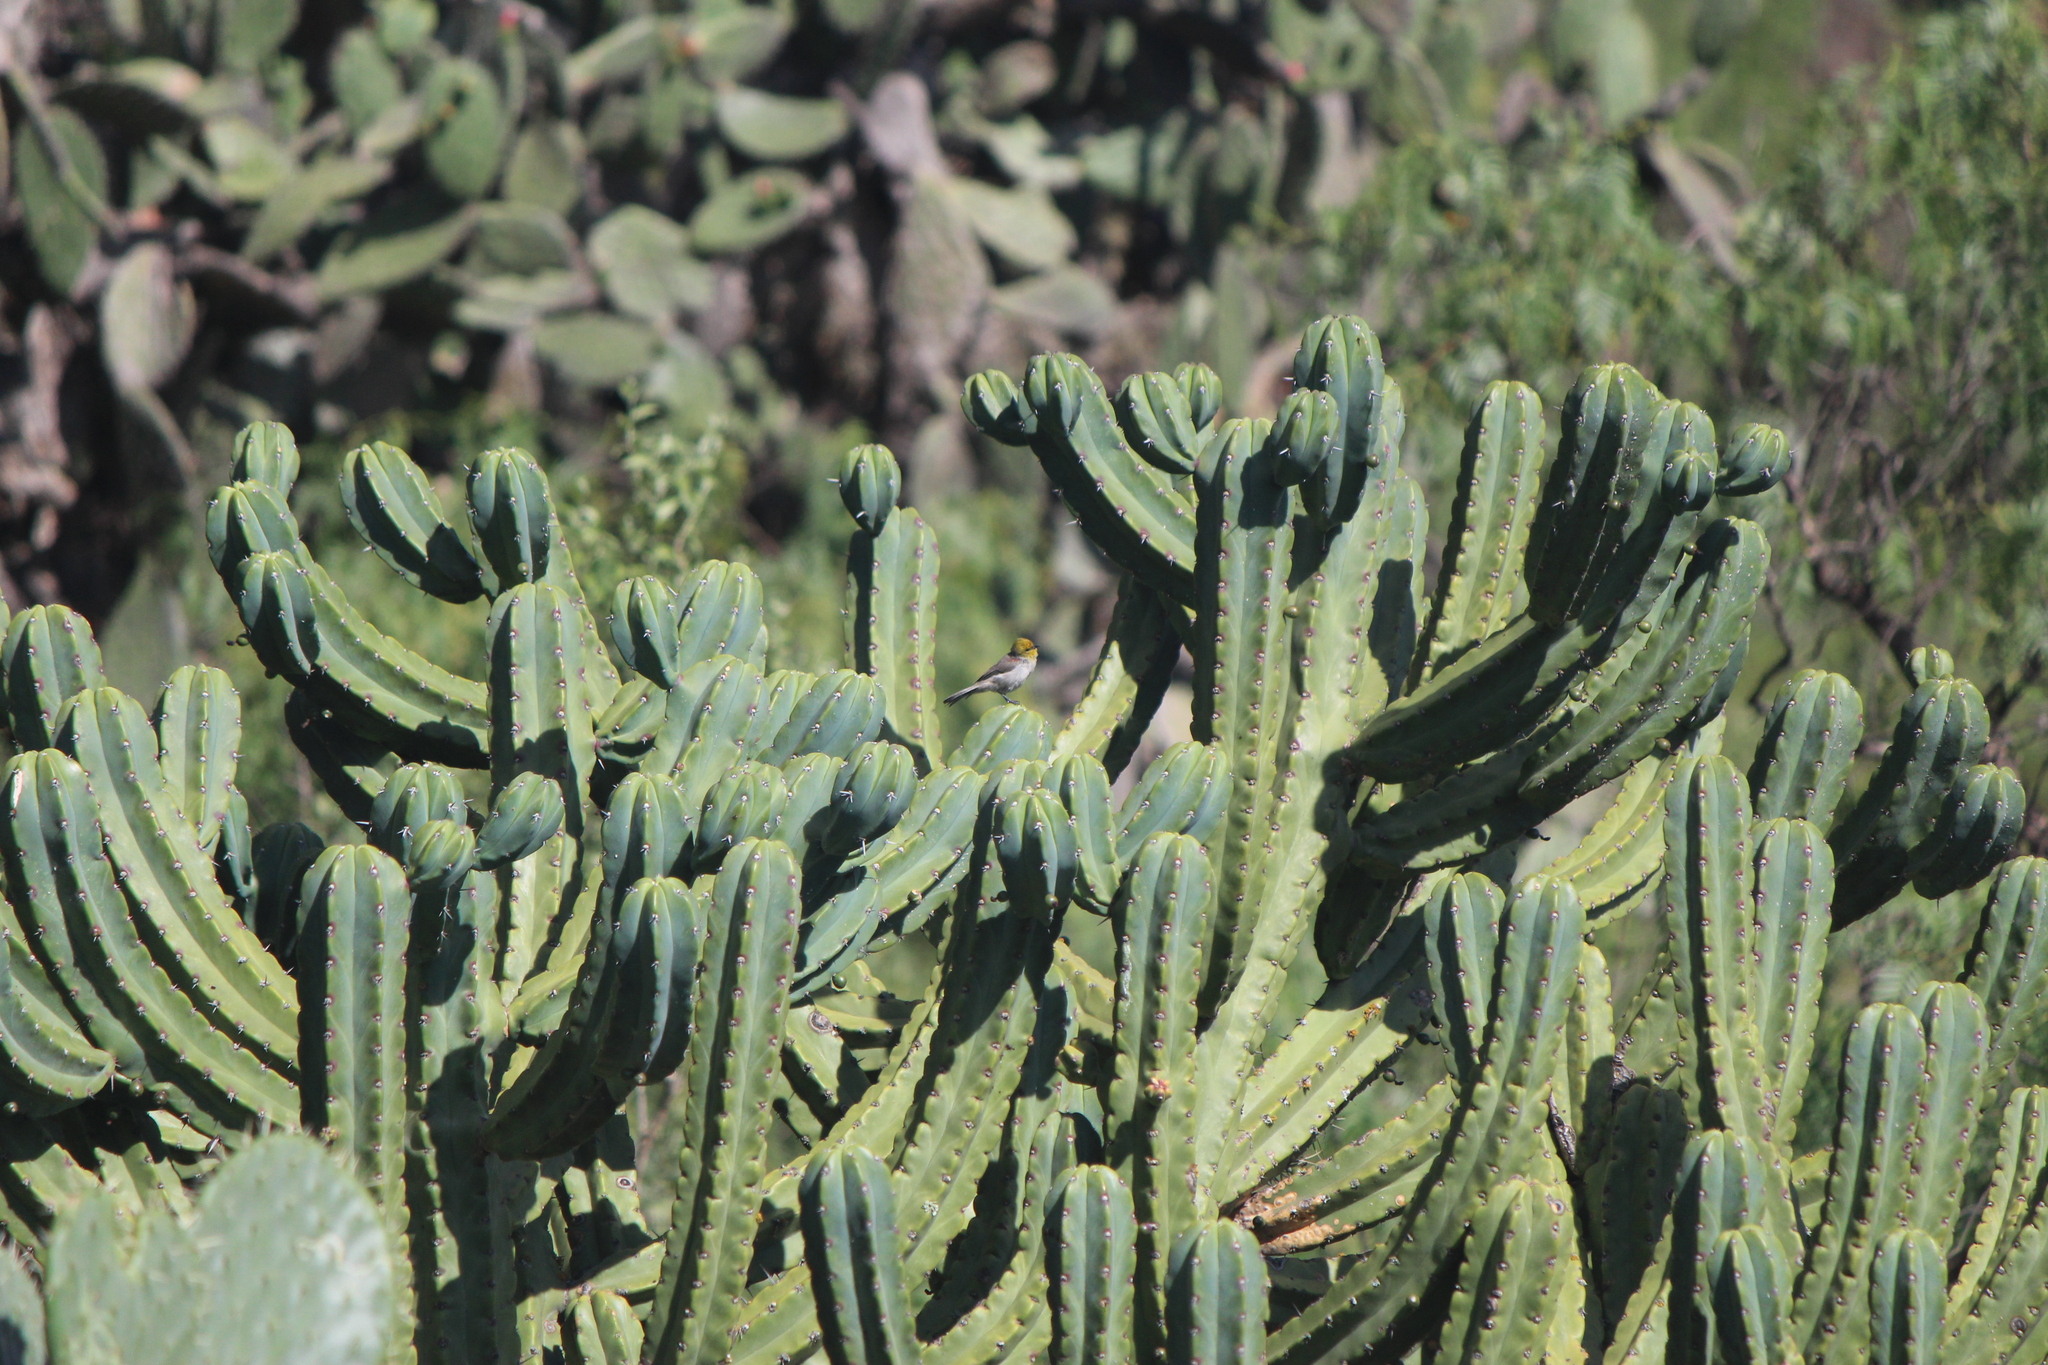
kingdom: Animalia
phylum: Chordata
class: Aves
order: Passeriformes
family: Remizidae
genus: Auriparus
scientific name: Auriparus flaviceps
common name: Verdin
